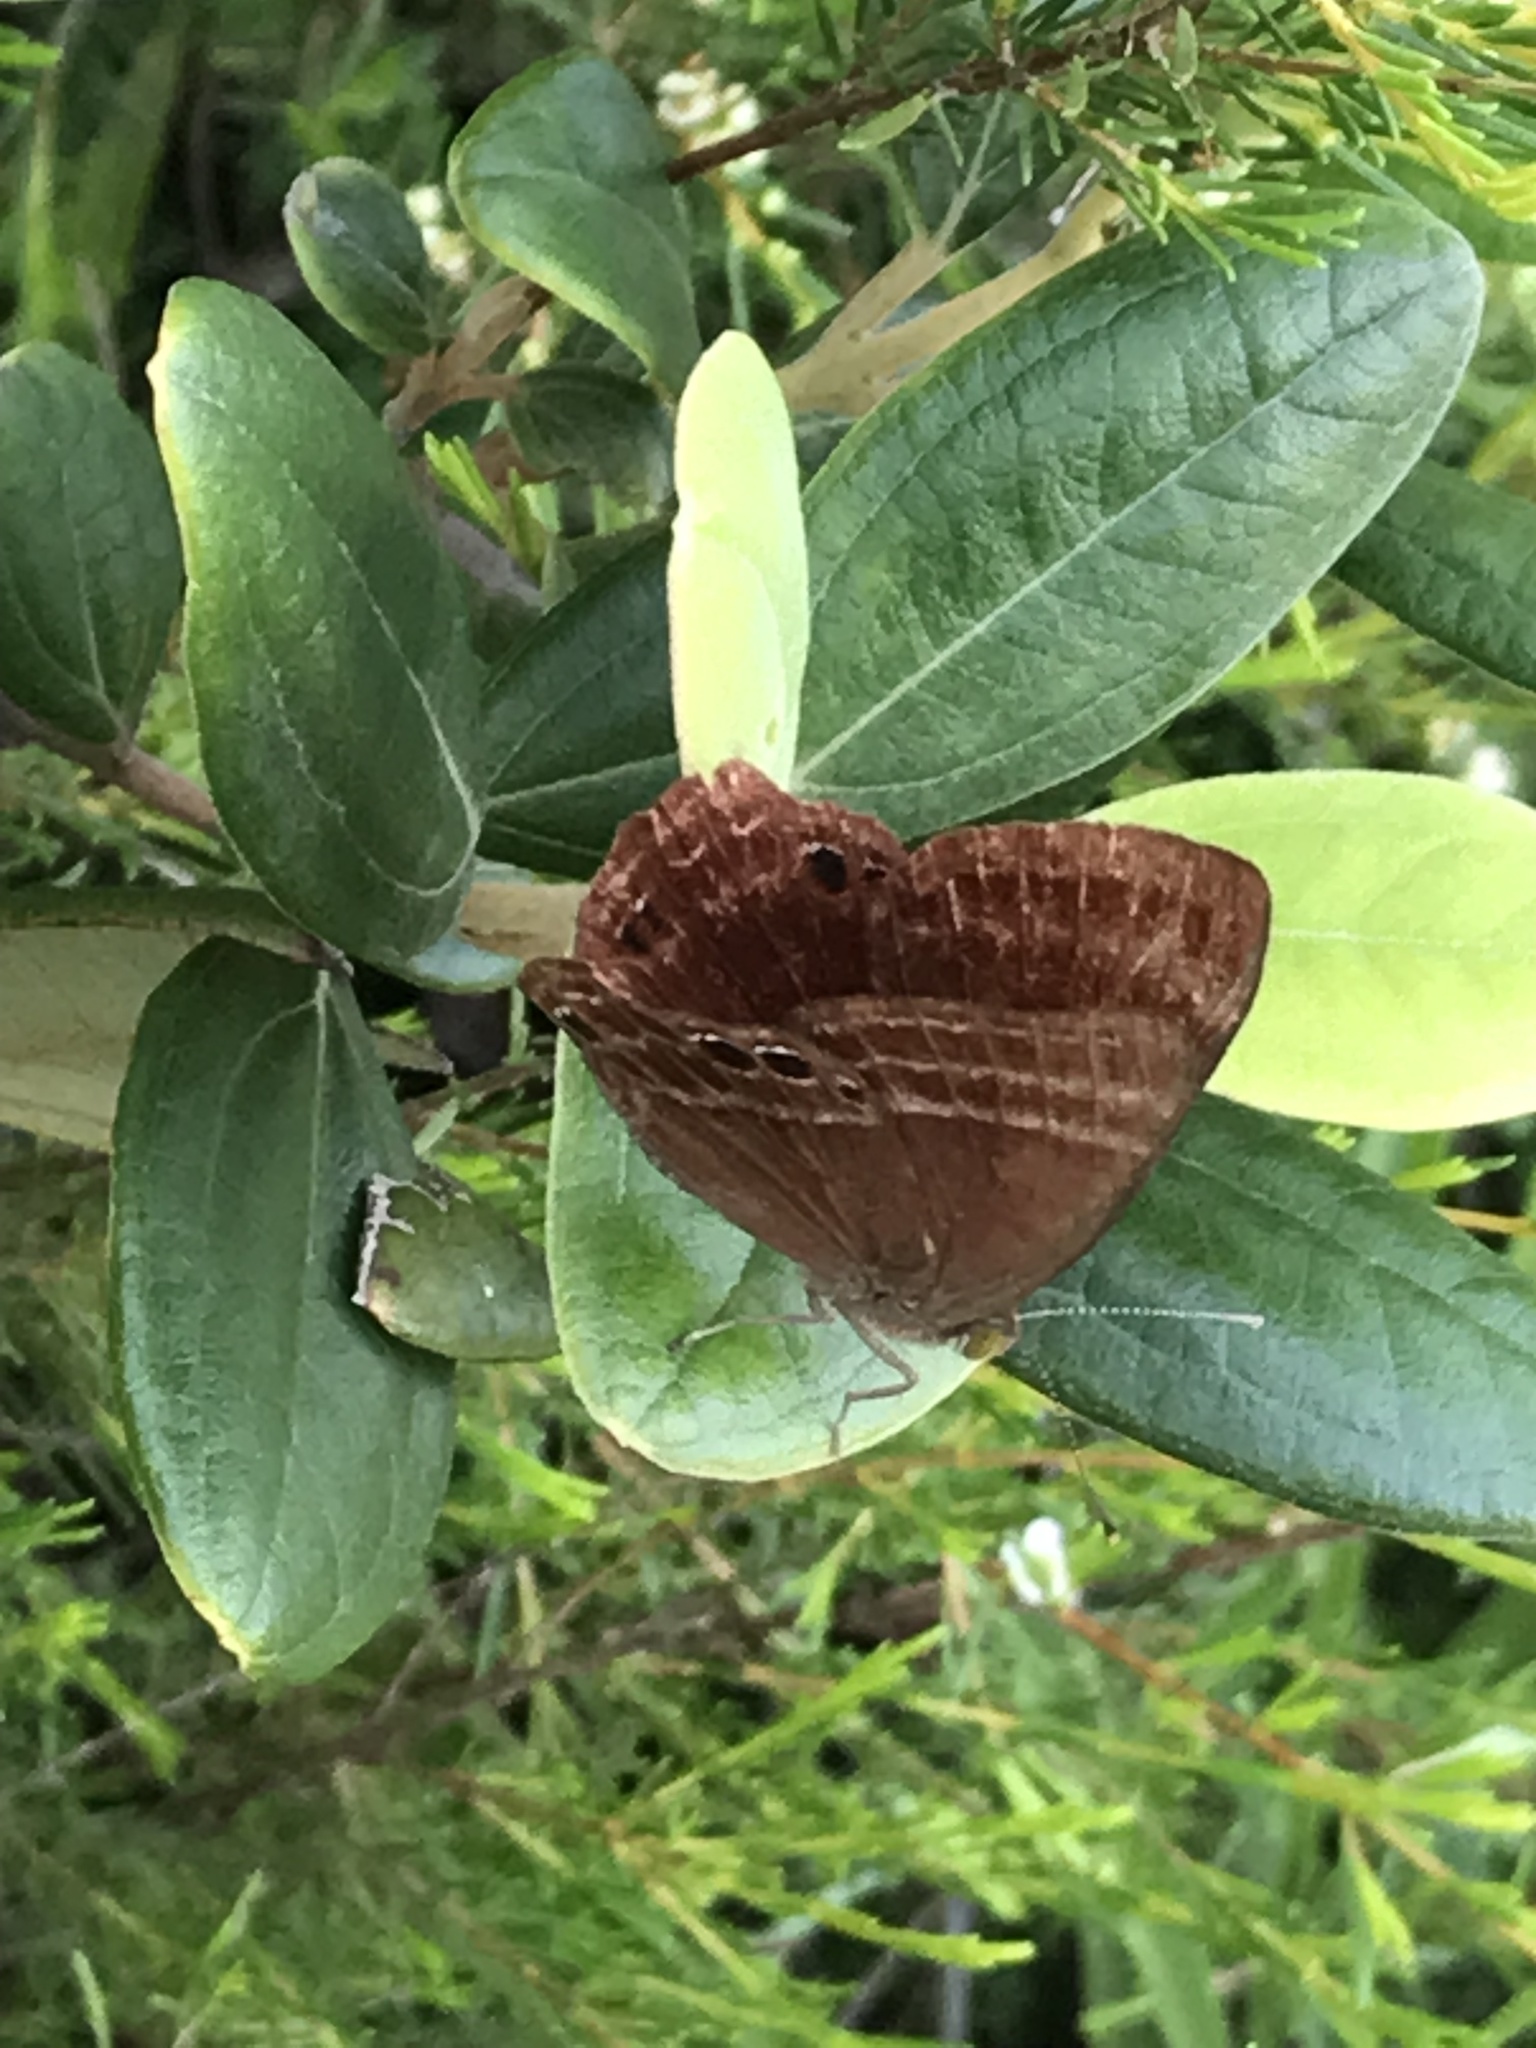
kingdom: Animalia
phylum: Arthropoda
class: Insecta
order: Lepidoptera
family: Lycaenidae
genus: Abisara
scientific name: Abisara echeria
